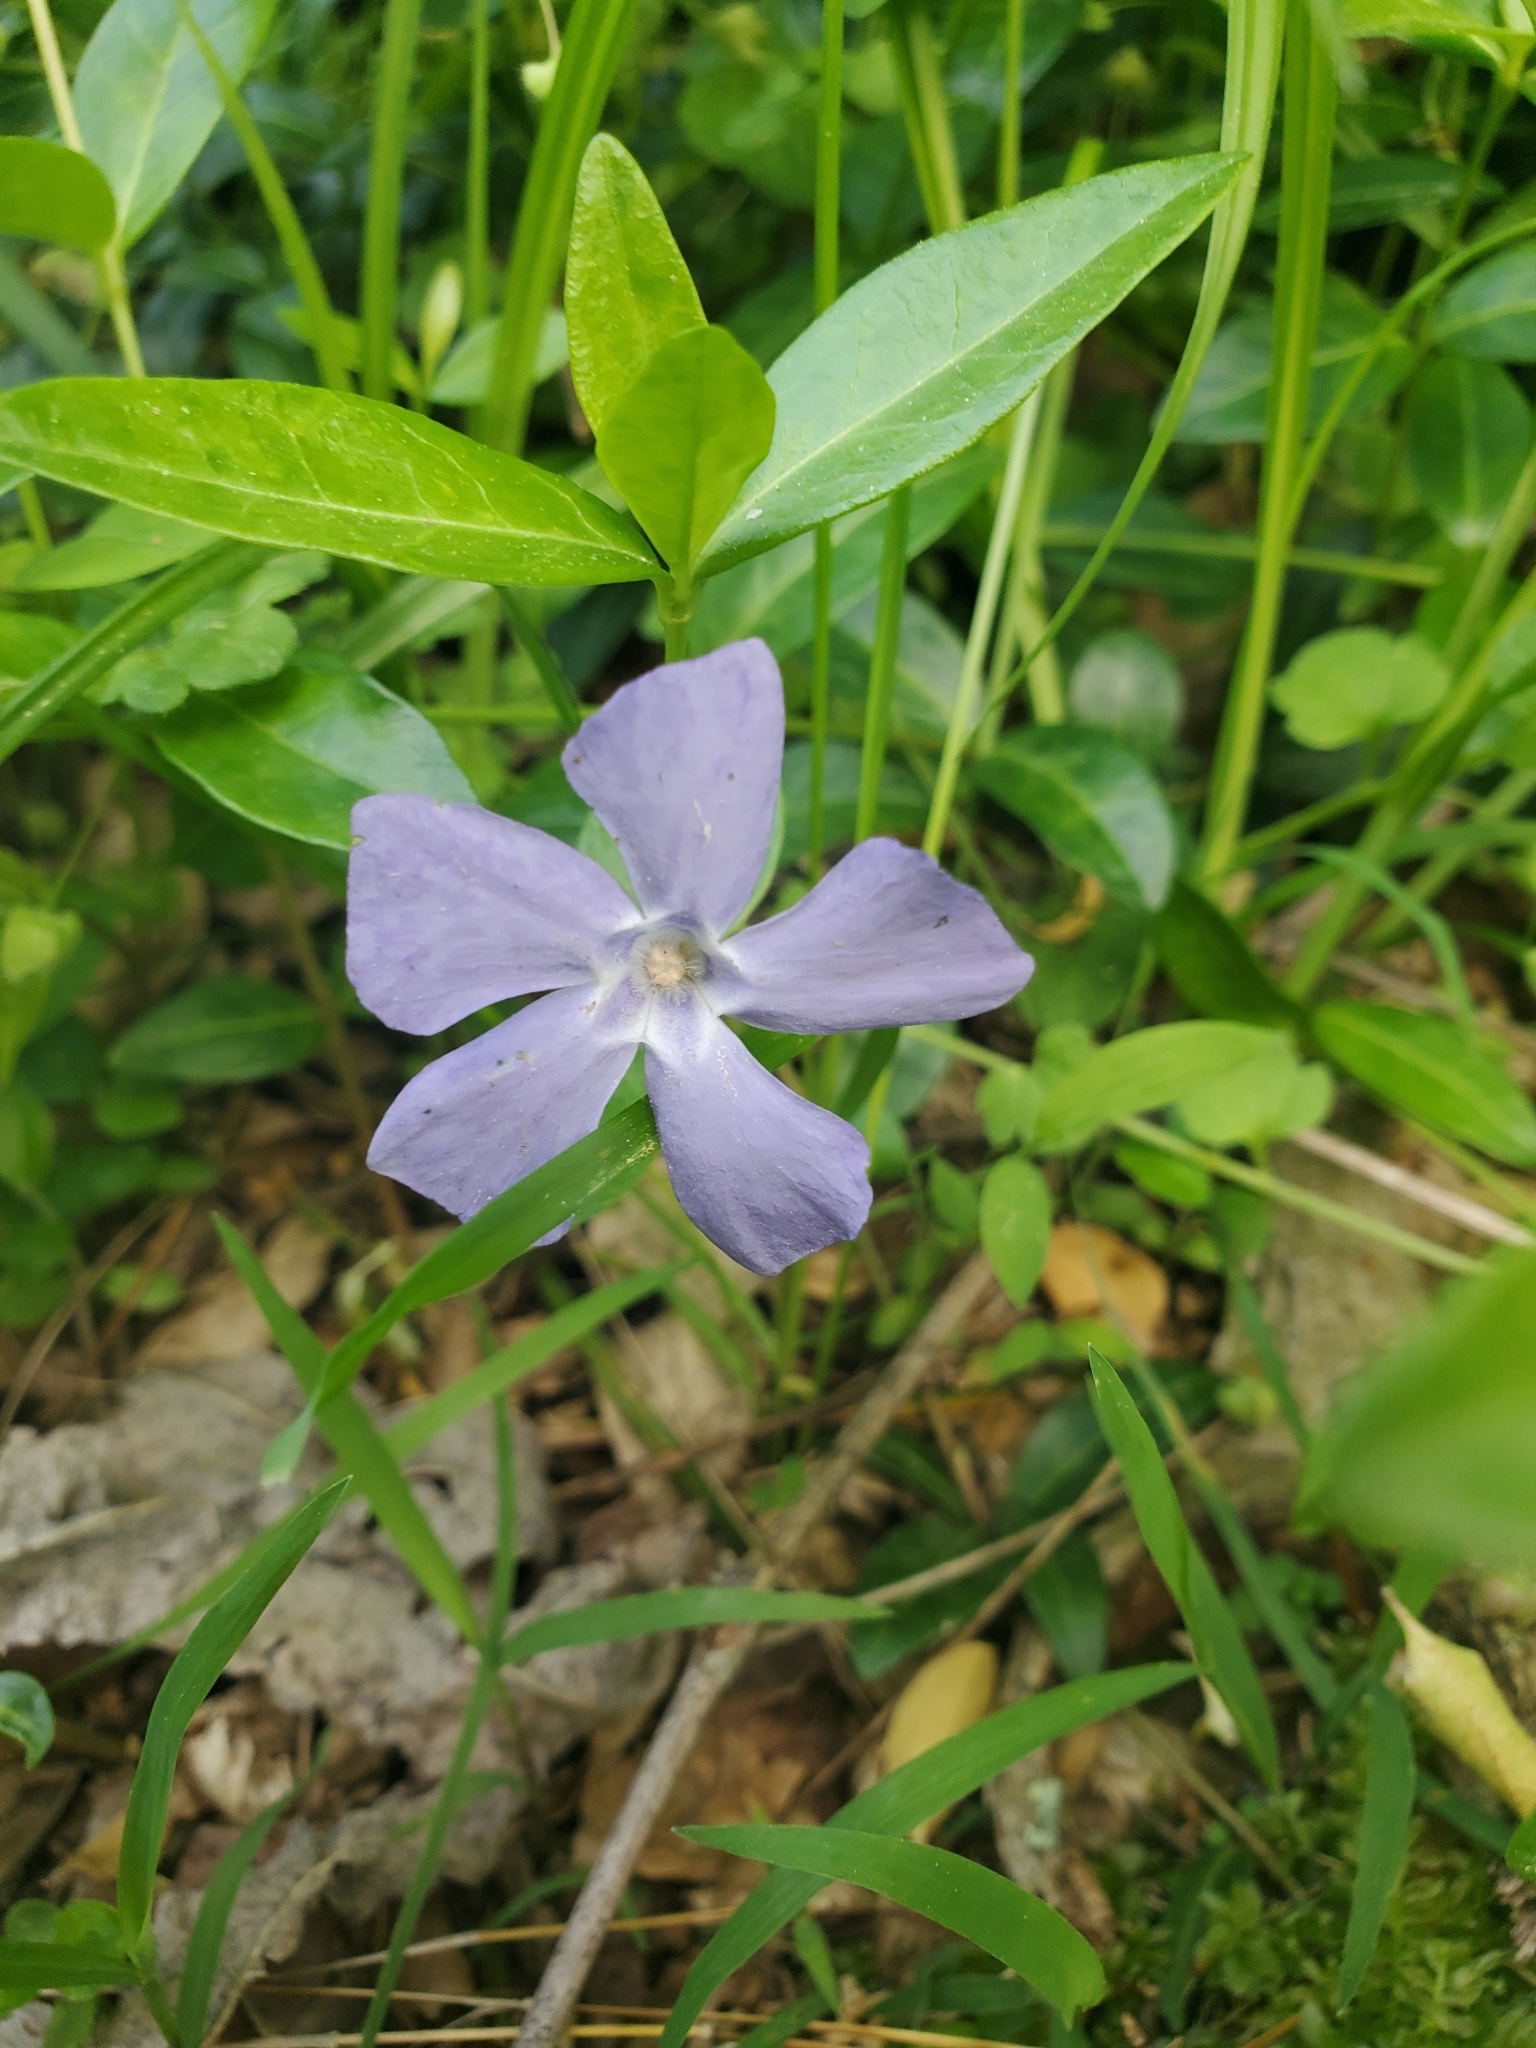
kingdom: Plantae
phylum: Tracheophyta
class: Magnoliopsida
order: Gentianales
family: Apocynaceae
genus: Vinca
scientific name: Vinca minor
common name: Lesser periwinkle
